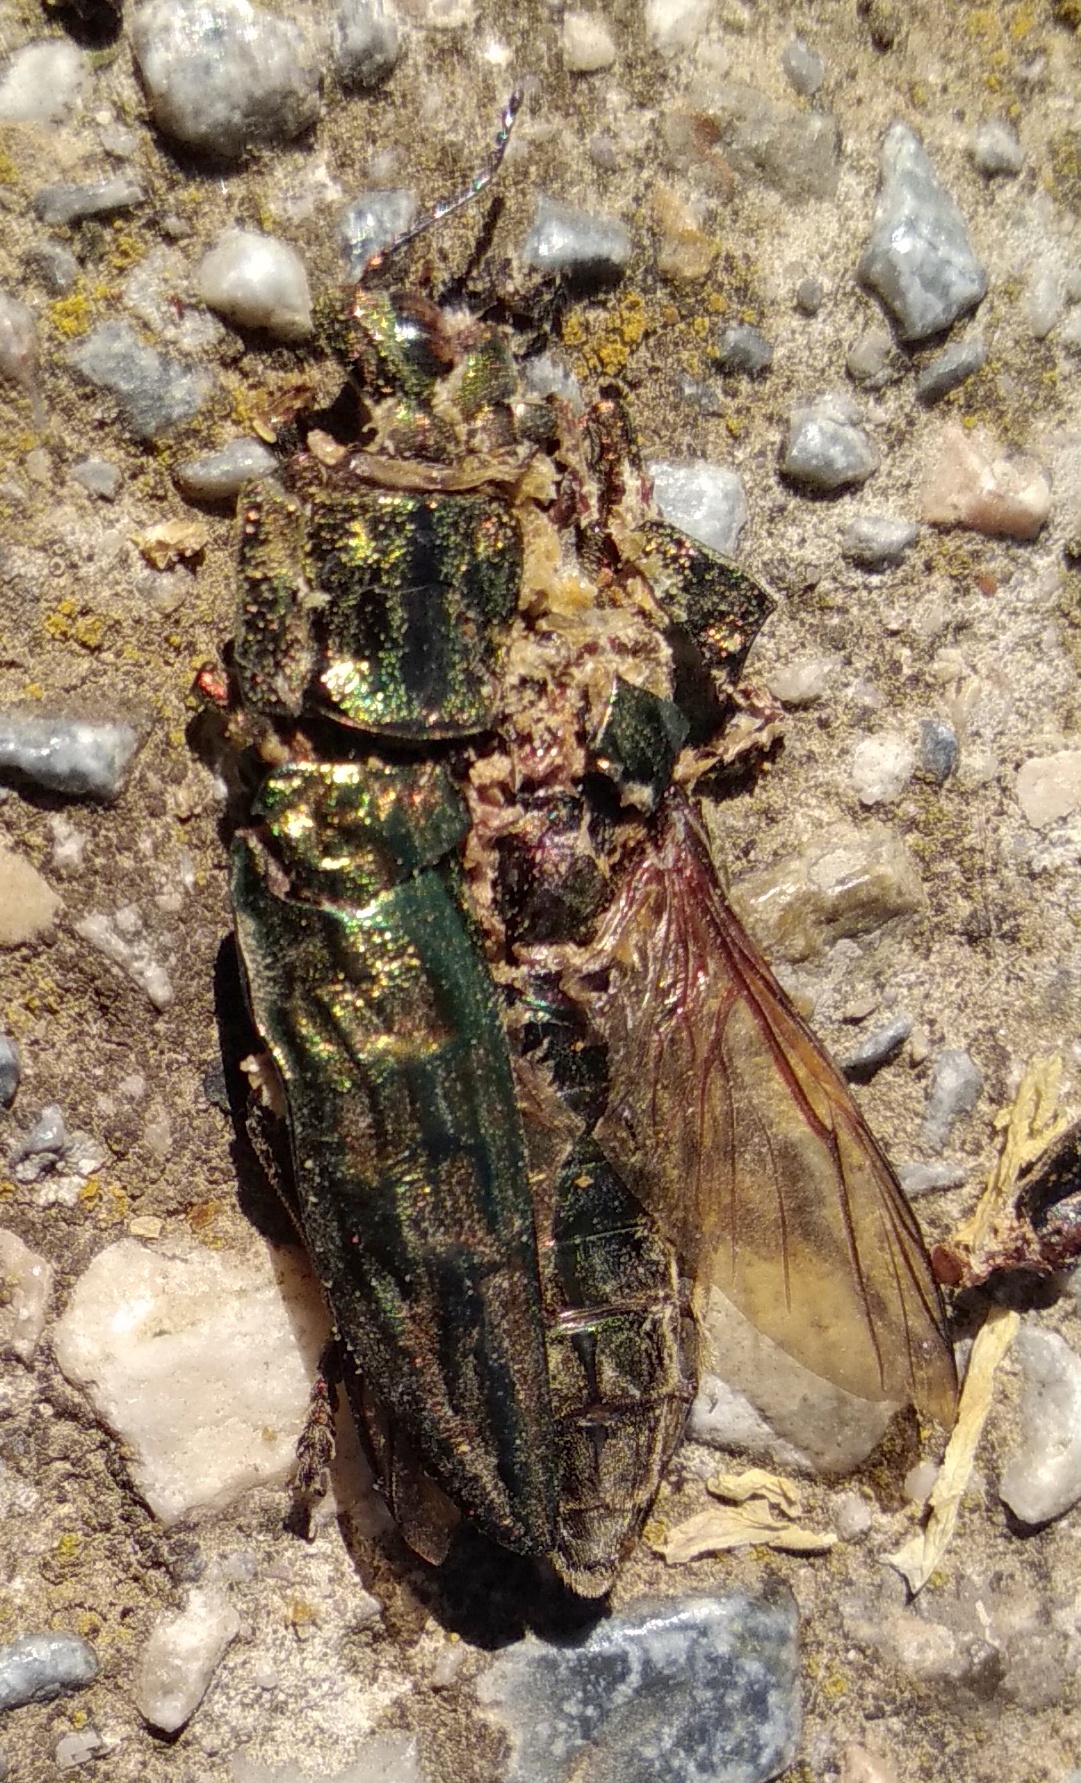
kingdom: Animalia
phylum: Arthropoda
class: Insecta
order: Coleoptera
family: Buprestidae
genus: Chalcophora
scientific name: Chalcophora massiliensis
